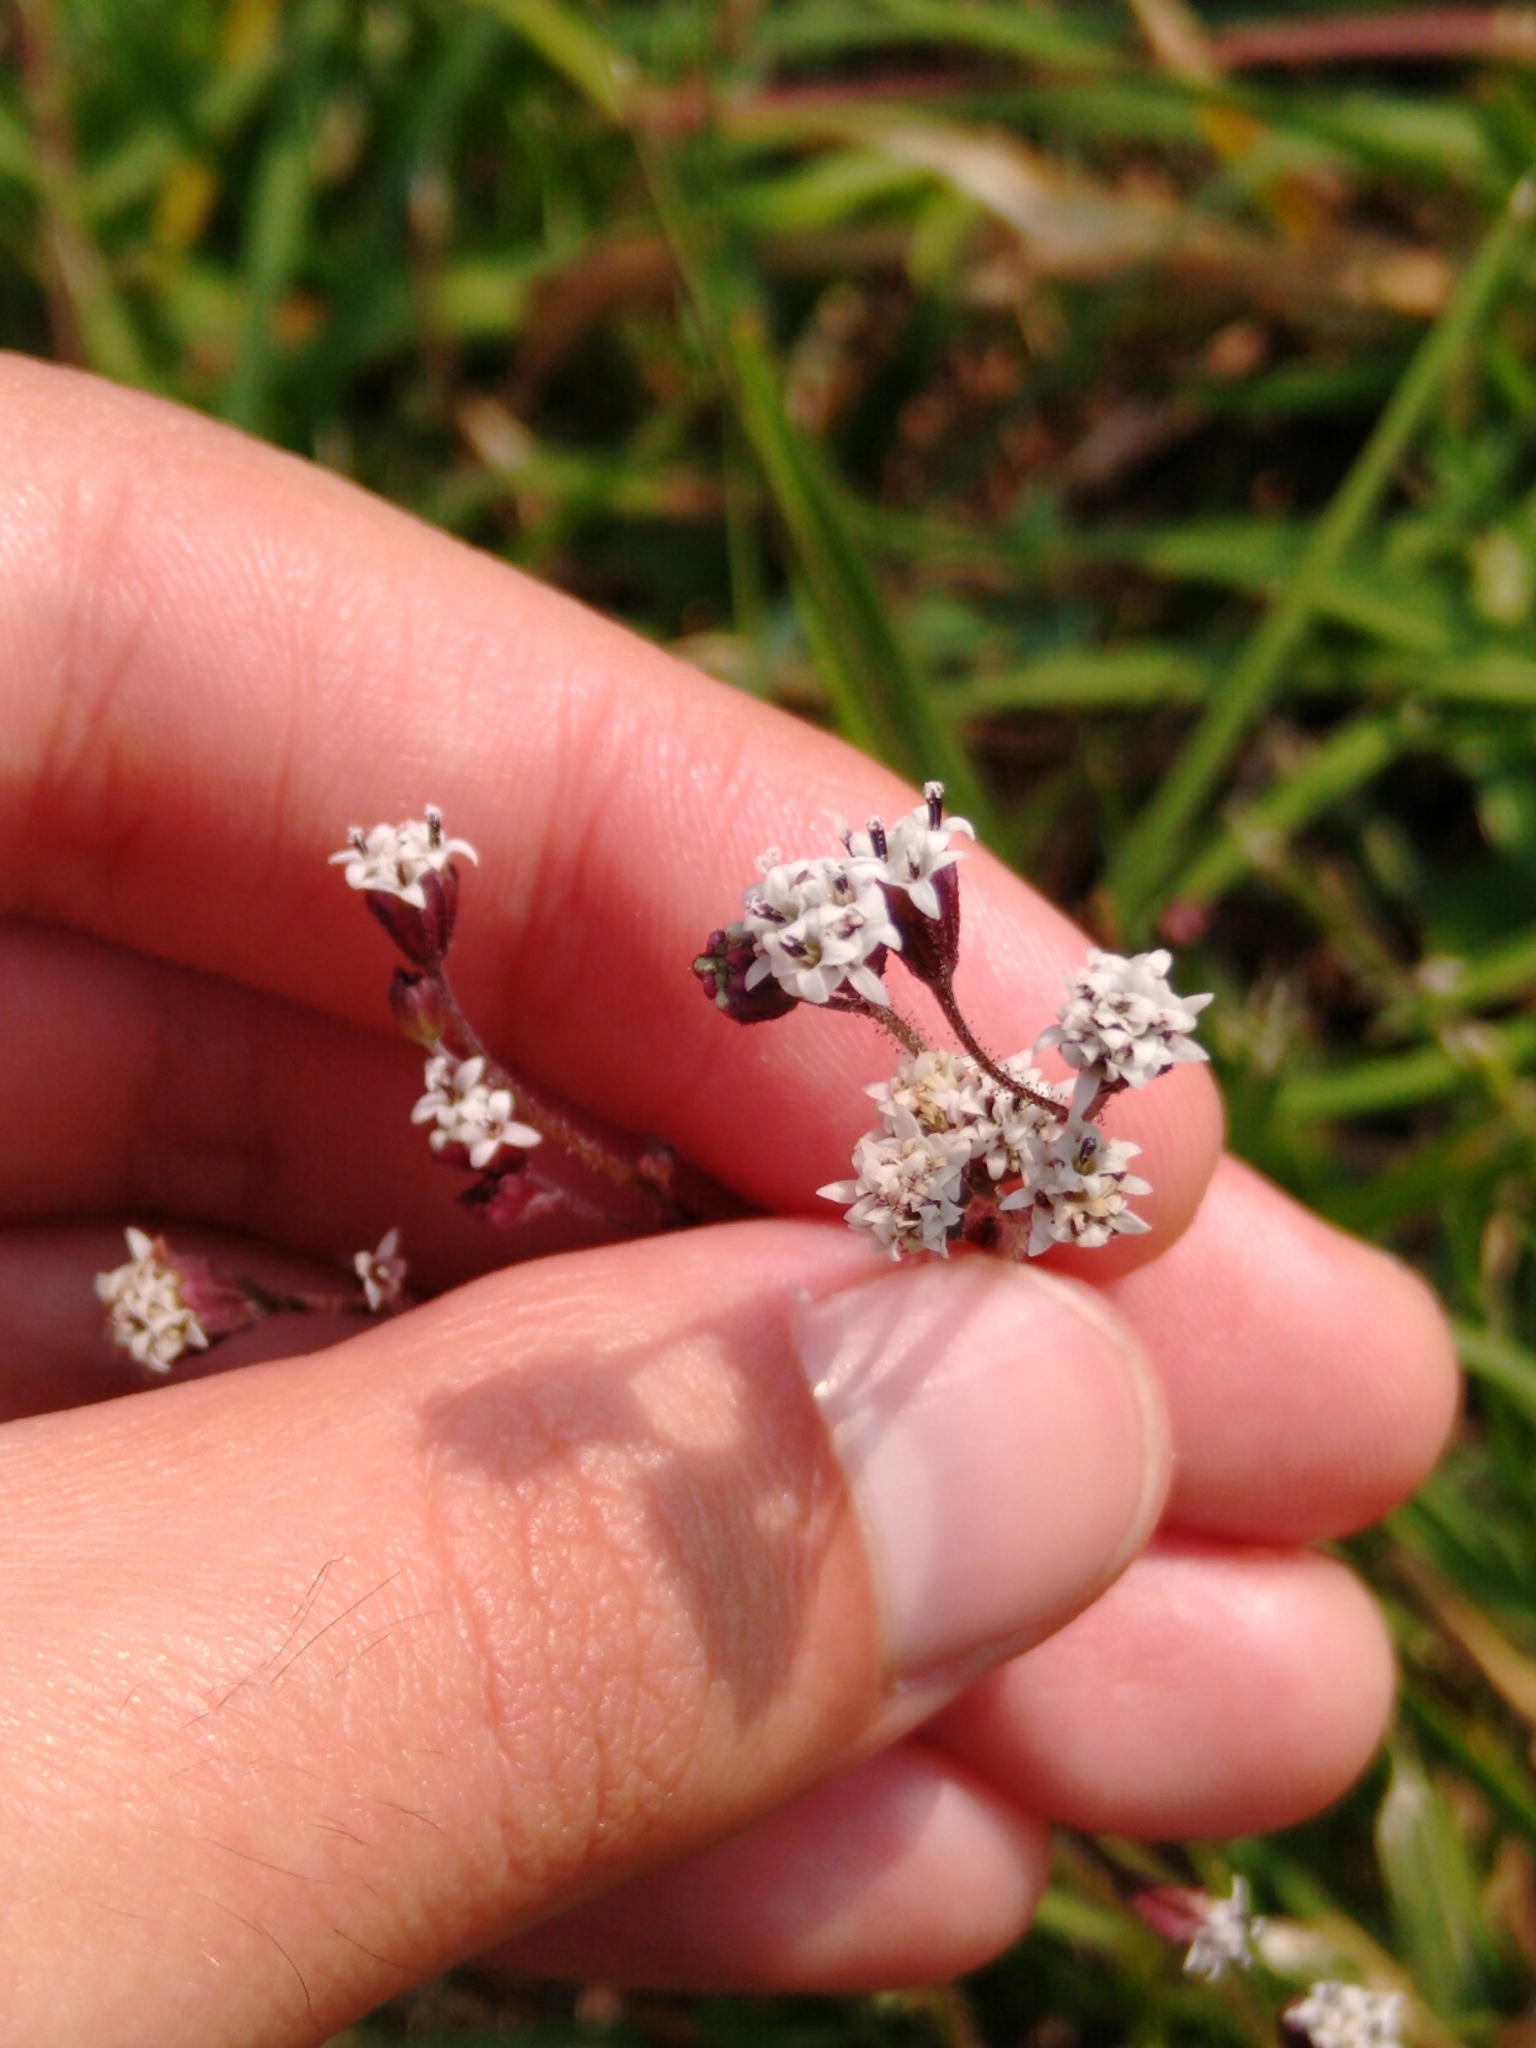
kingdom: Plantae
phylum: Tracheophyta
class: Magnoliopsida
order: Asterales
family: Asteraceae
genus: Florestina
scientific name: Florestina pedata
